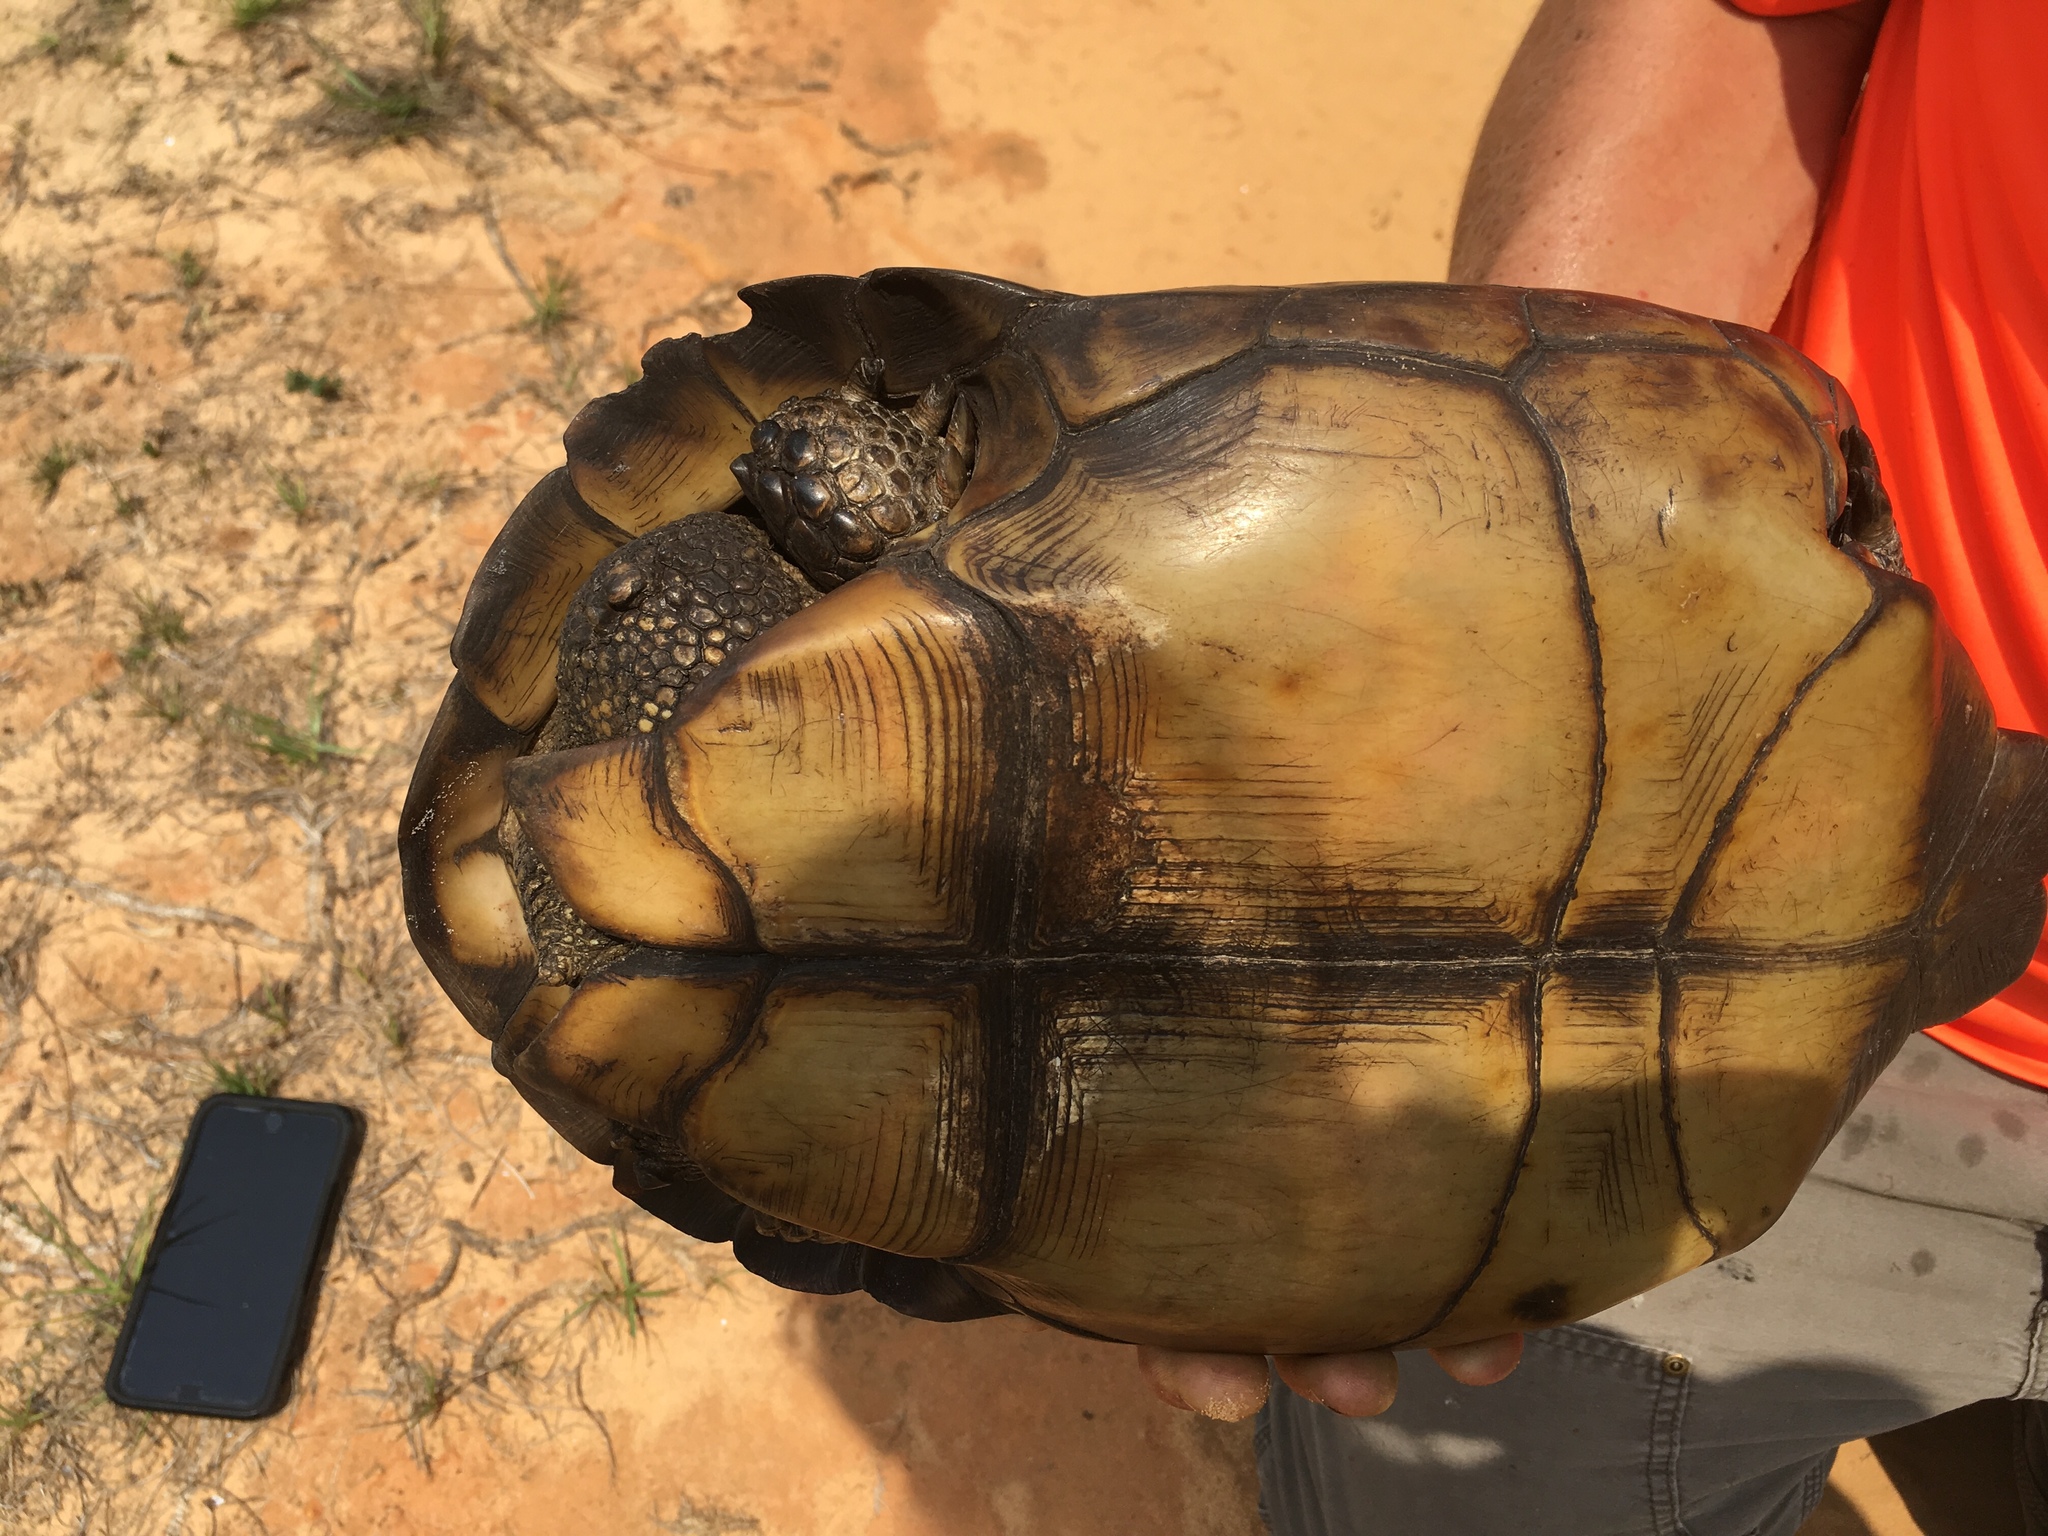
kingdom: Animalia
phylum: Chordata
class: Testudines
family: Testudinidae
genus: Gopherus
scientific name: Gopherus polyphemus
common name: Florida gopher tortoise
